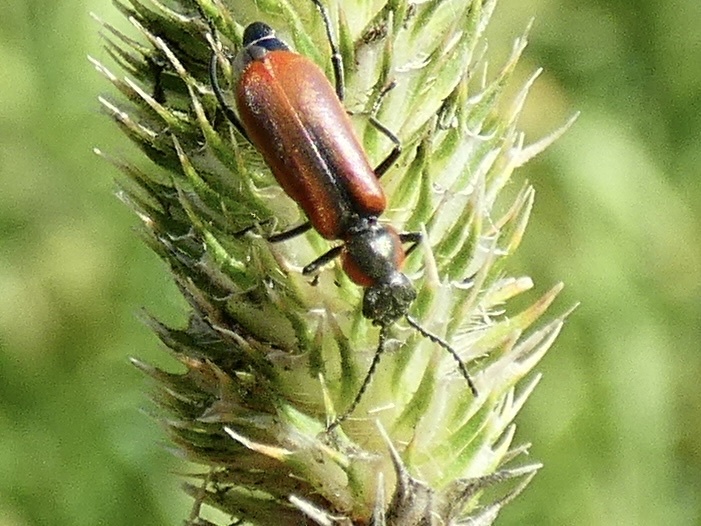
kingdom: Animalia
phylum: Arthropoda
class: Insecta
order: Coleoptera
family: Melyridae
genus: Anthocomus
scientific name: Anthocomus rufus
